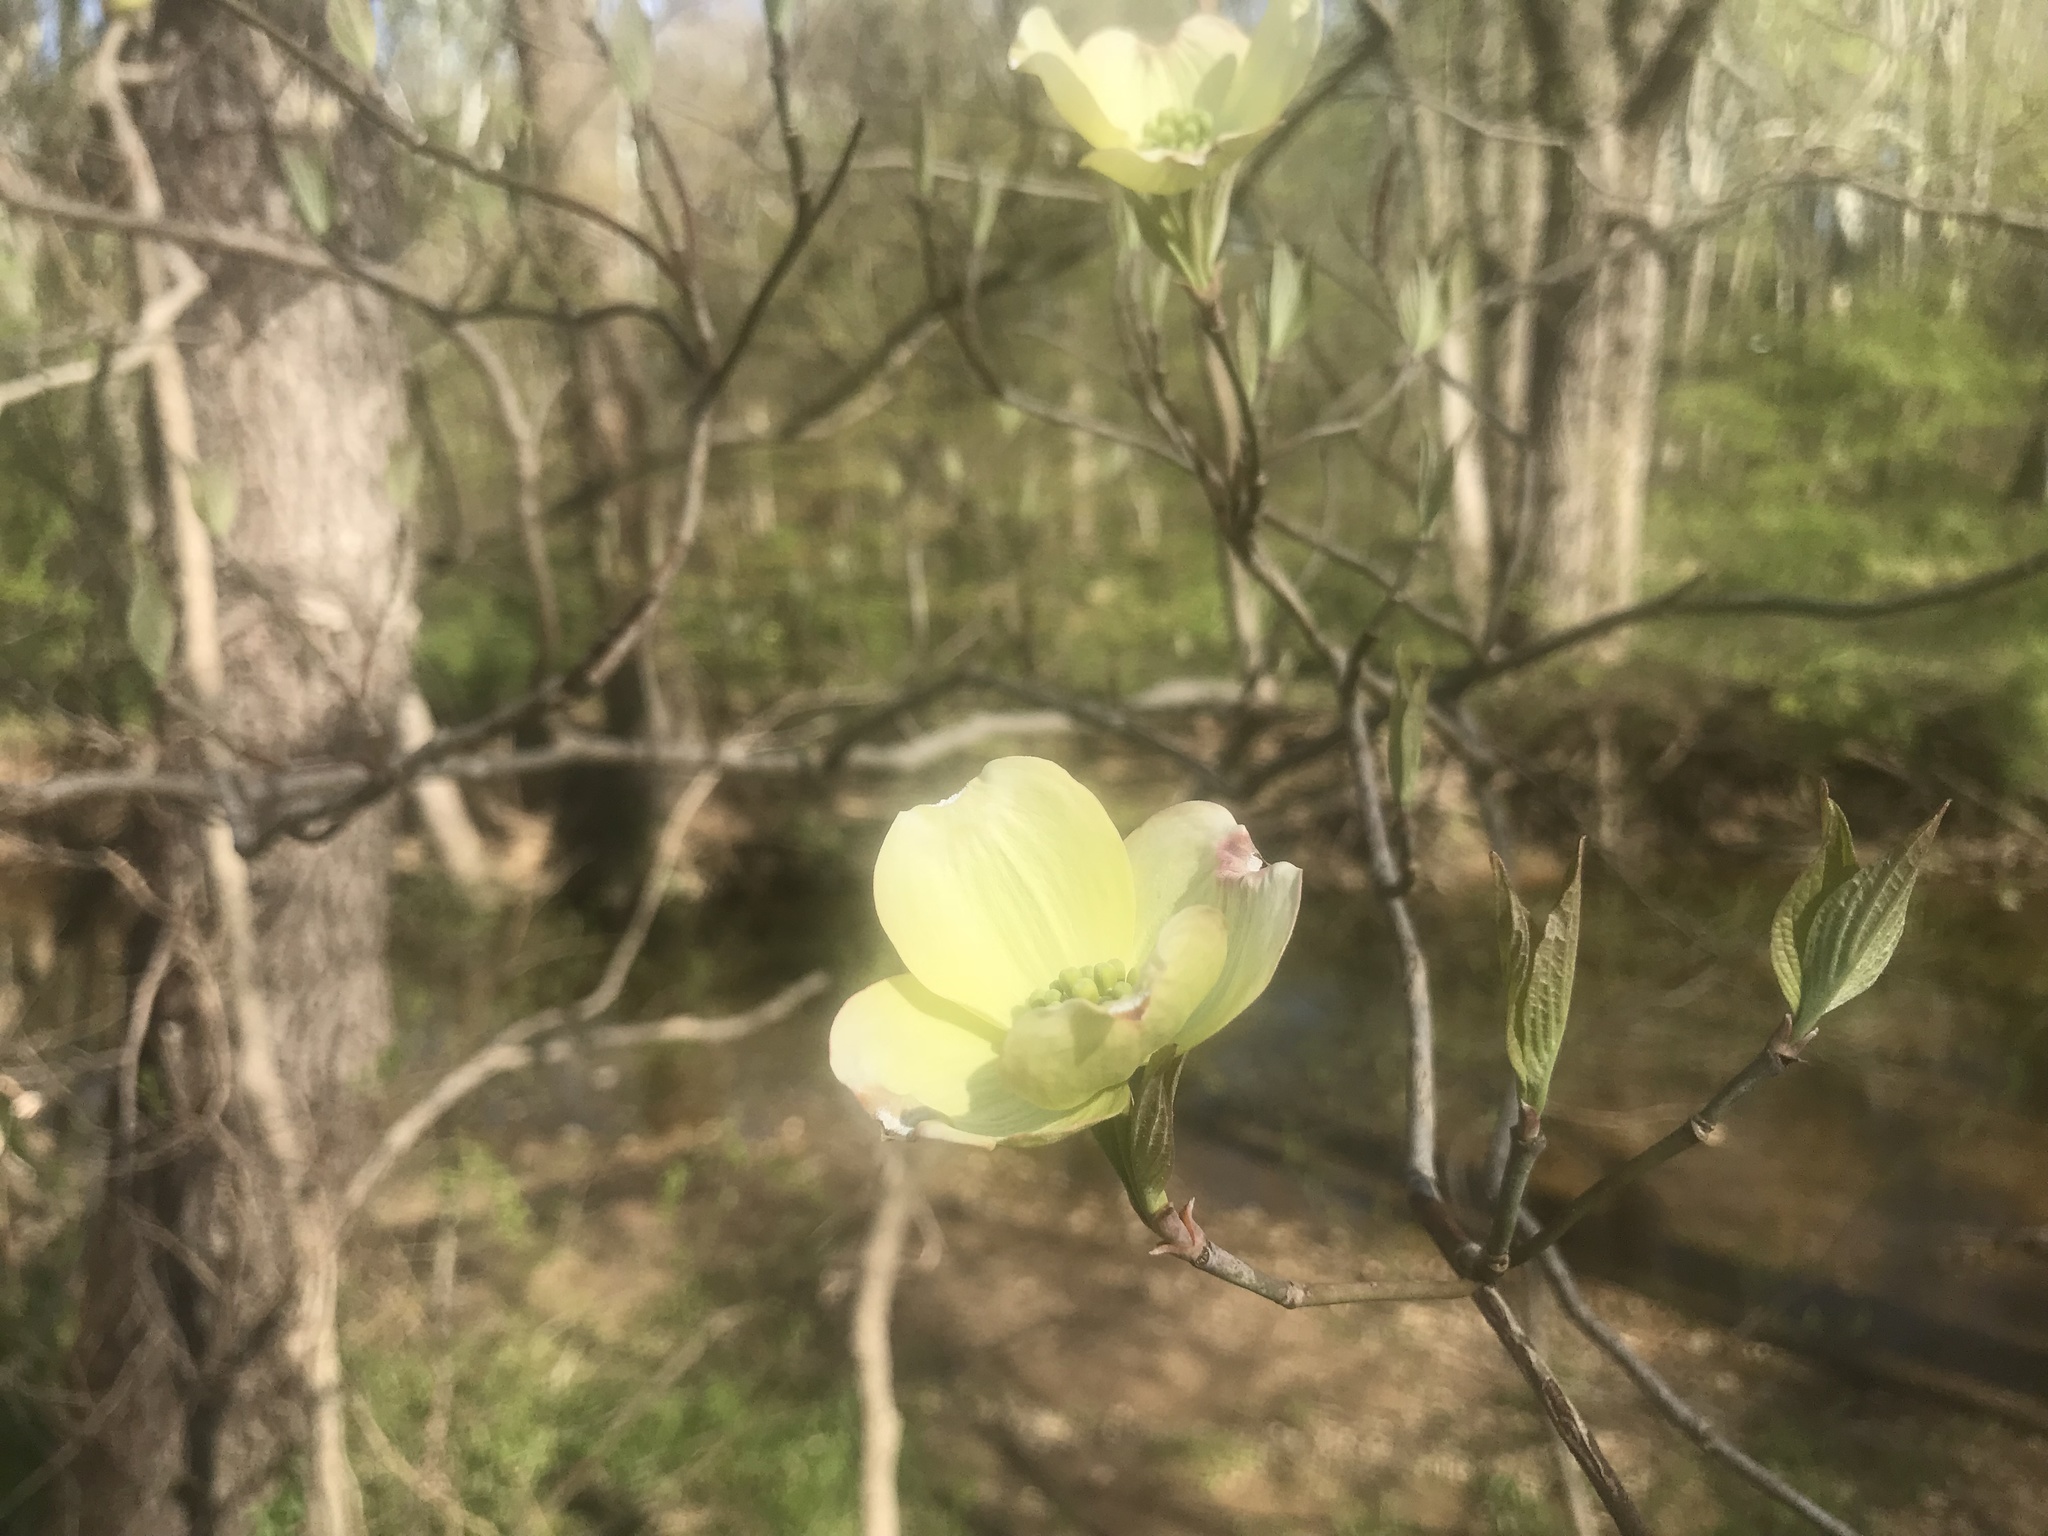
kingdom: Plantae
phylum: Tracheophyta
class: Magnoliopsida
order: Cornales
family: Cornaceae
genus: Cornus
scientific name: Cornus florida
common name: Flowering dogwood
